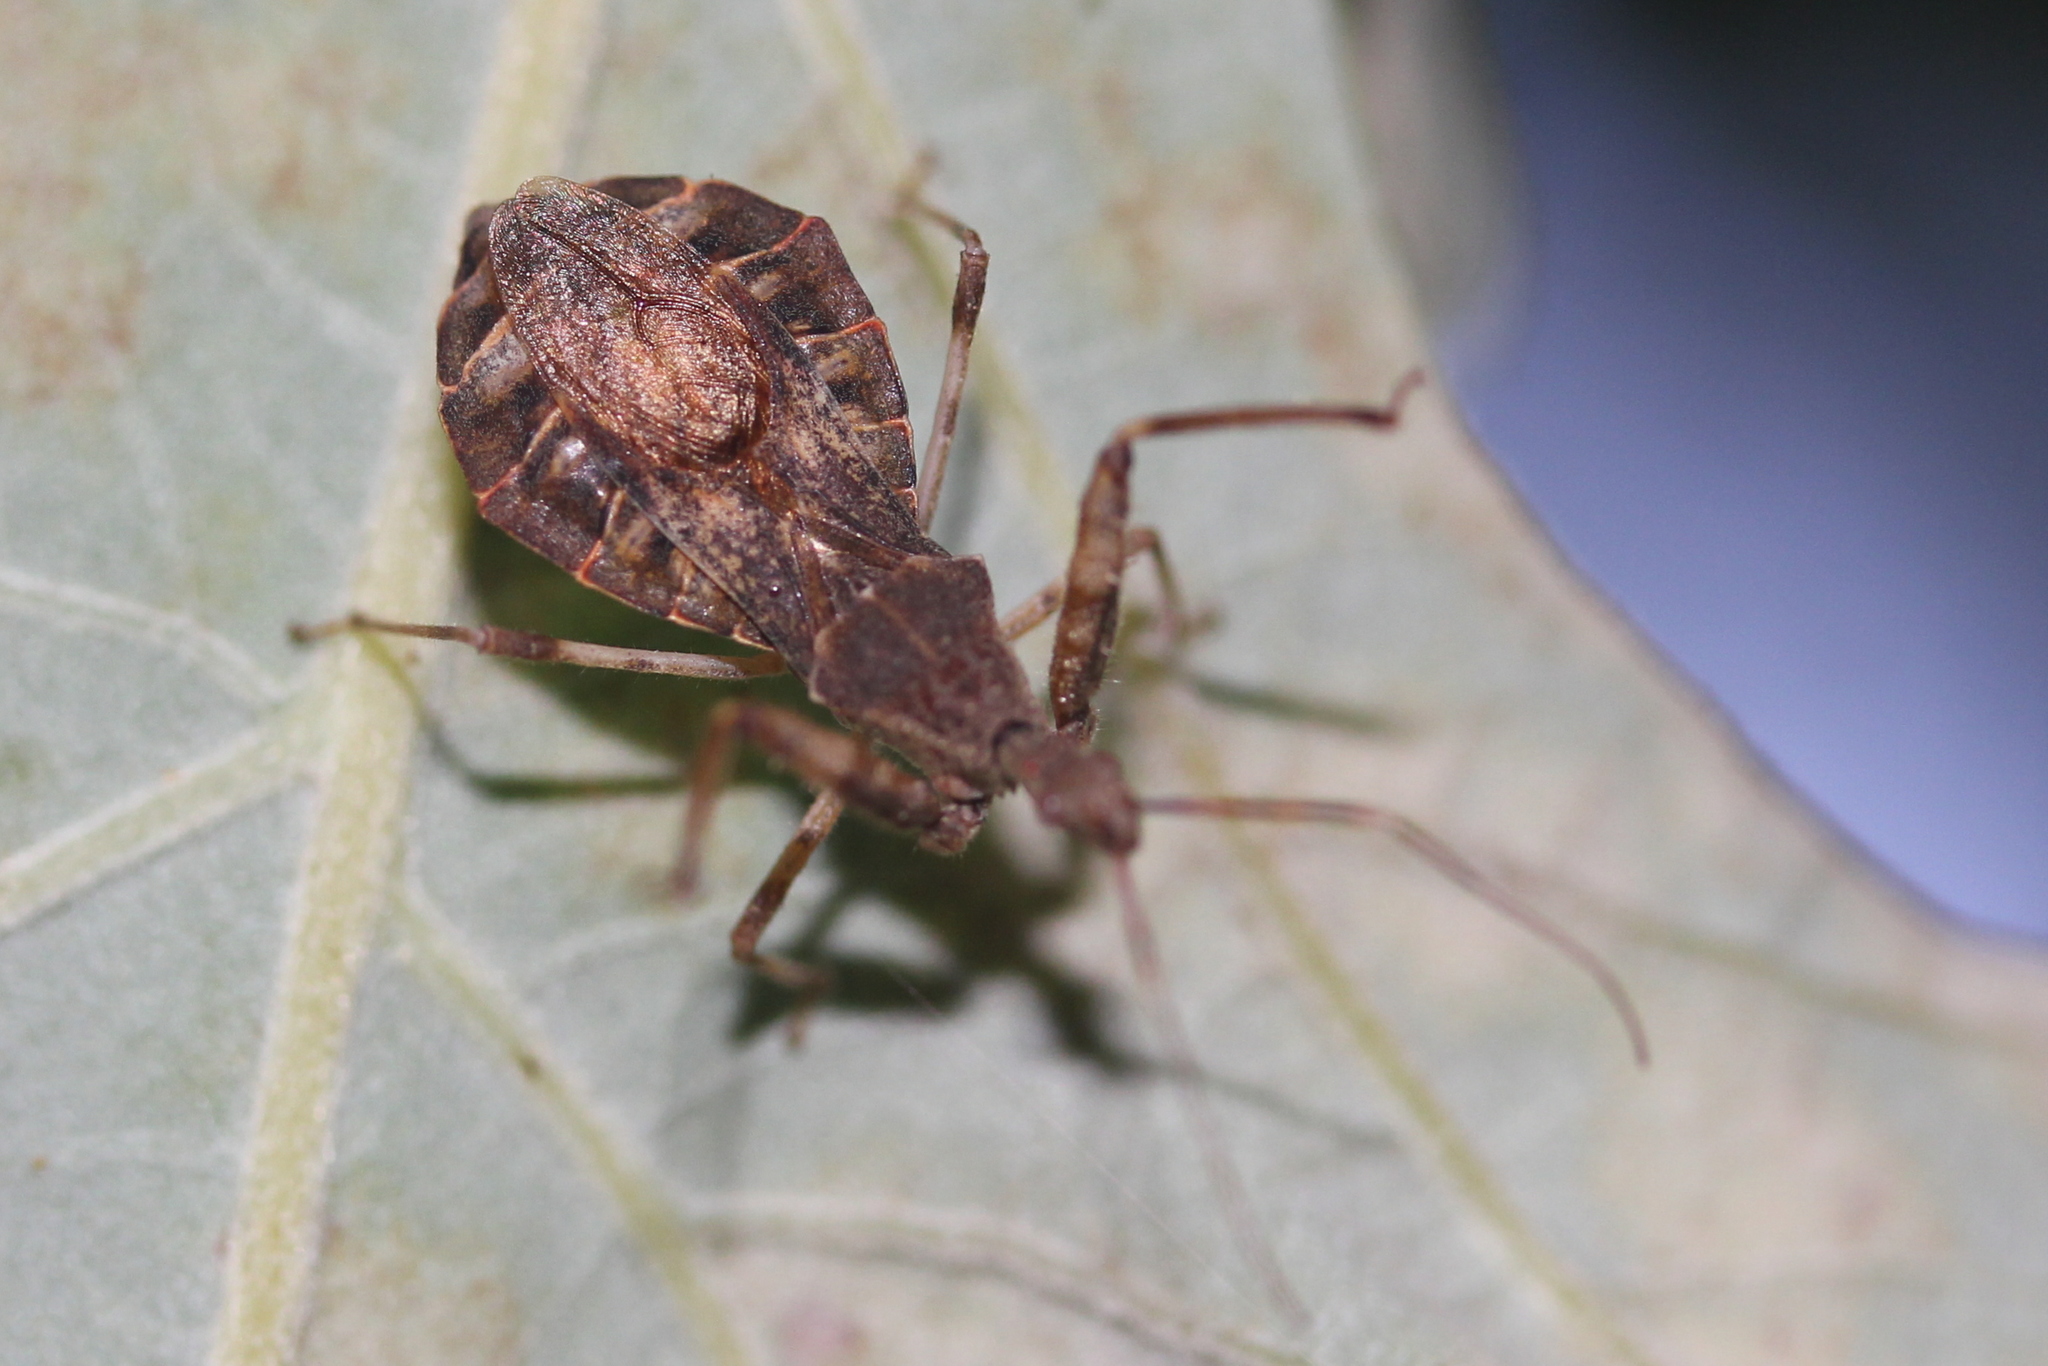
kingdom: Animalia
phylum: Arthropoda
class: Insecta
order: Hemiptera
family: Reduviidae
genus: Acholla
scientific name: Acholla multispinosa
